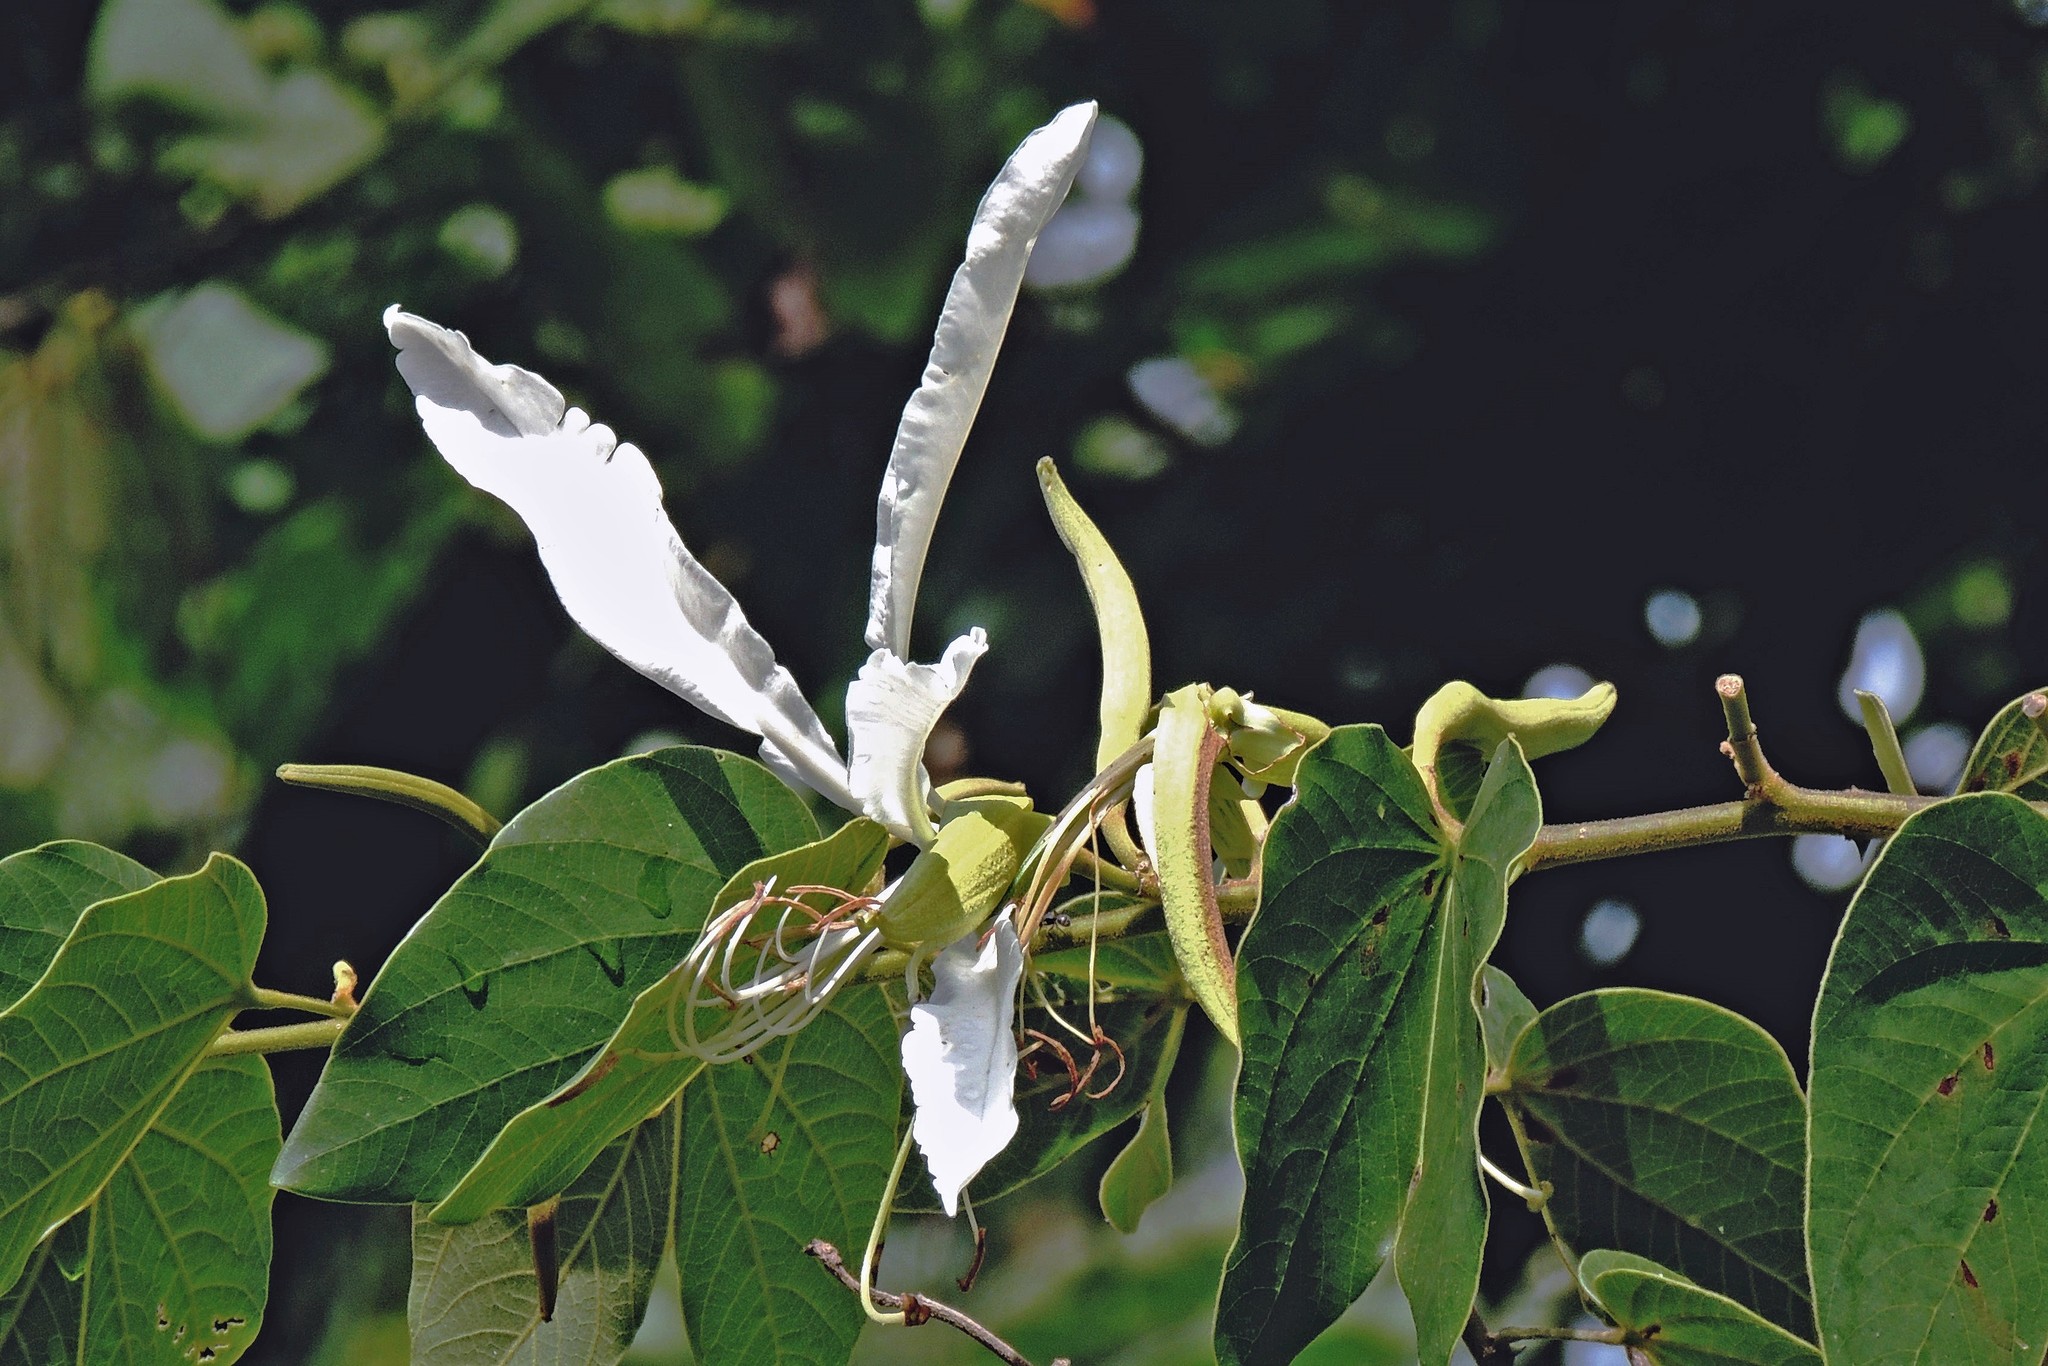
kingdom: Plantae
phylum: Tracheophyta
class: Magnoliopsida
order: Fabales
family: Fabaceae
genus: Bauhinia
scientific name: Bauhinia forficata
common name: Orchid tree
